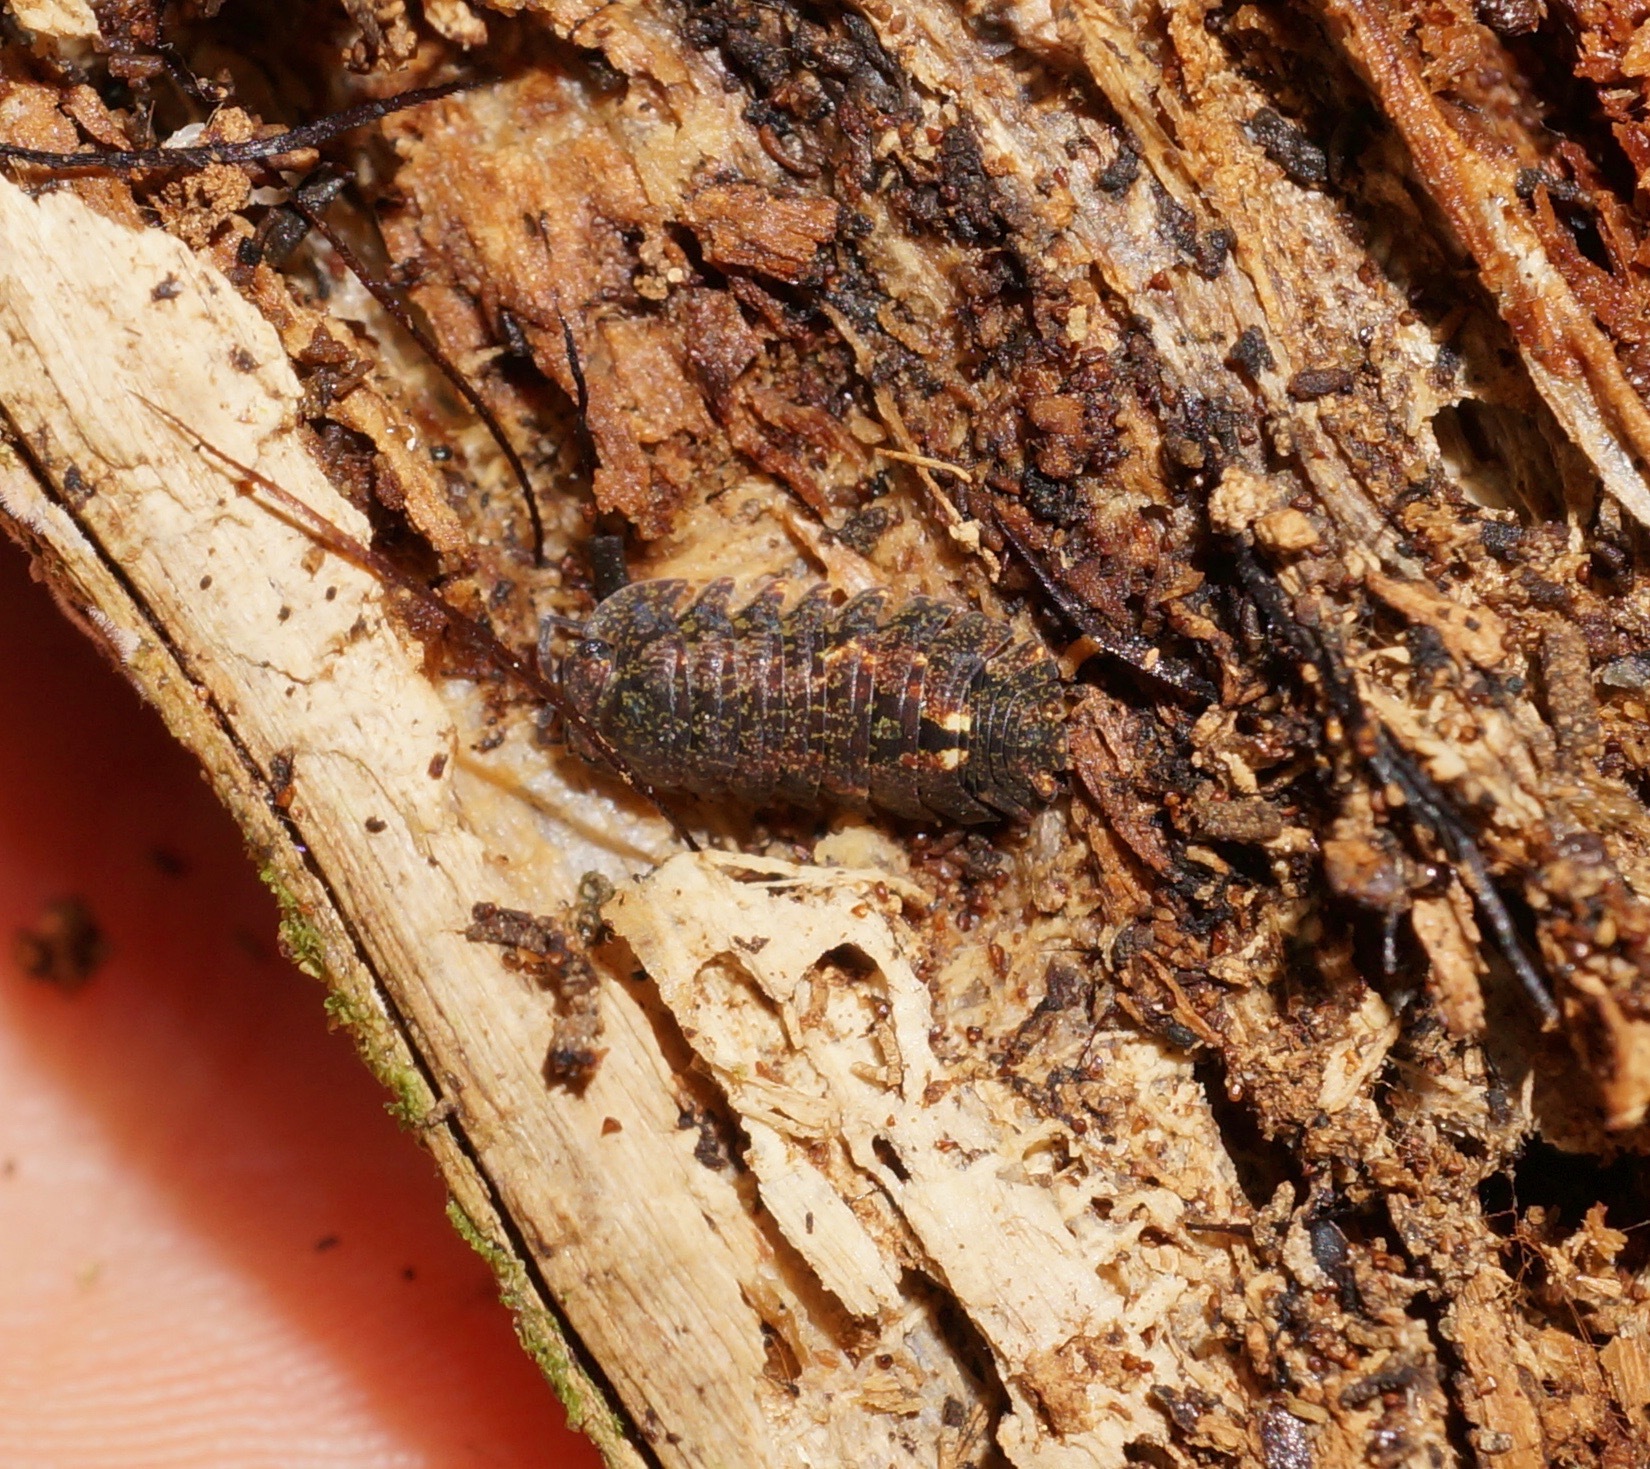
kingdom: Animalia
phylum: Arthropoda
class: Malacostraca
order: Isopoda
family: Armadillidae
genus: Cubaris
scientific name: Cubaris tarangensis
